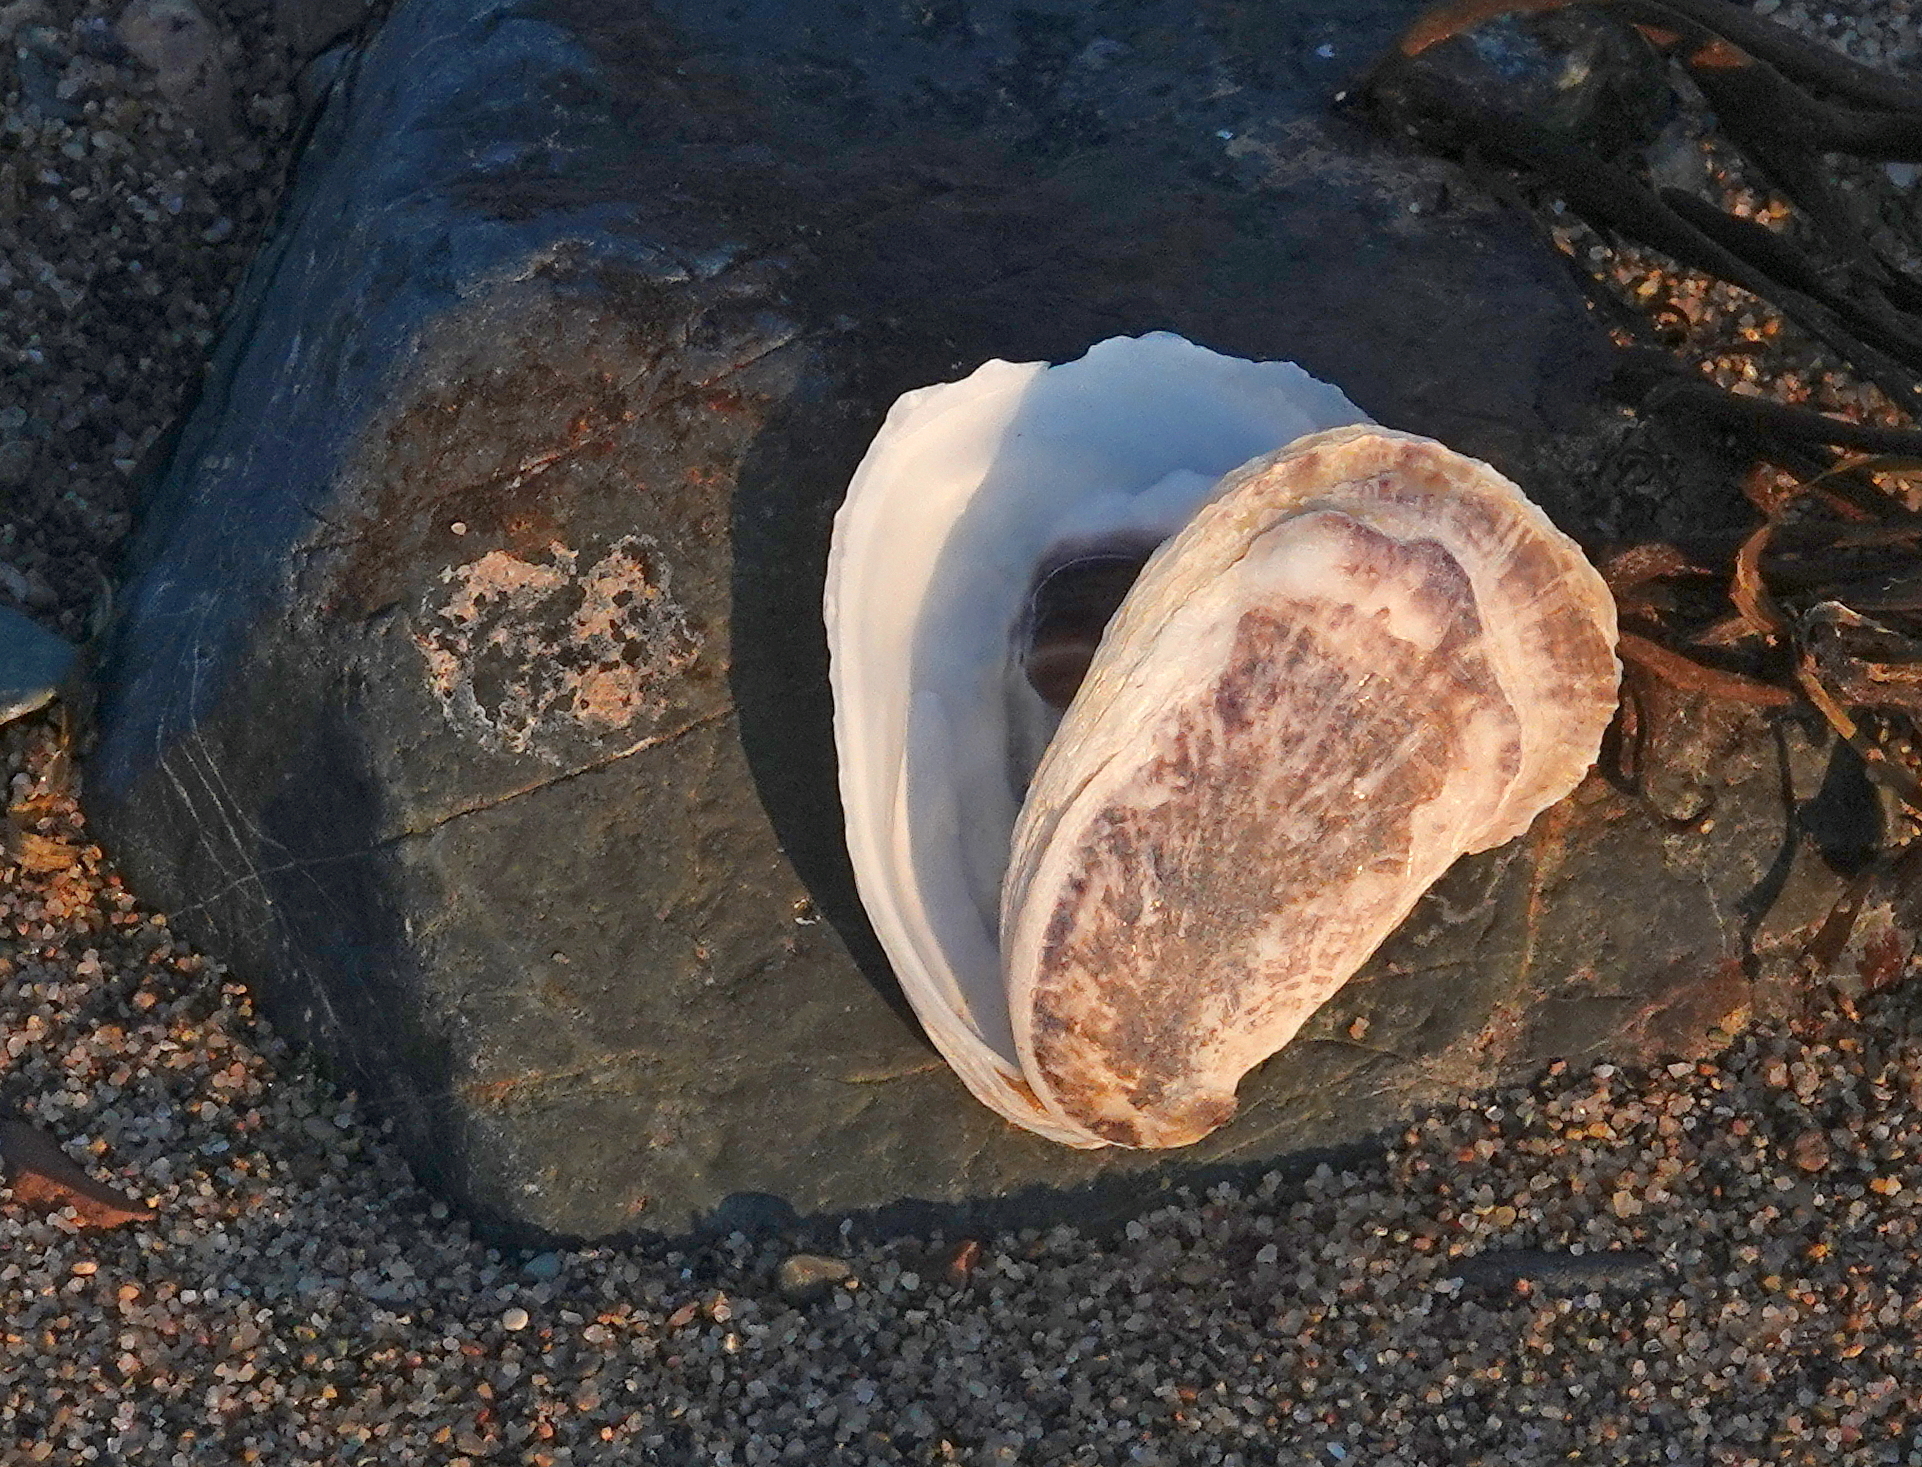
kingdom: Animalia
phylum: Mollusca
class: Bivalvia
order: Ostreida
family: Ostreidae
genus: Crassostrea
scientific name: Crassostrea virginica
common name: American oyster
